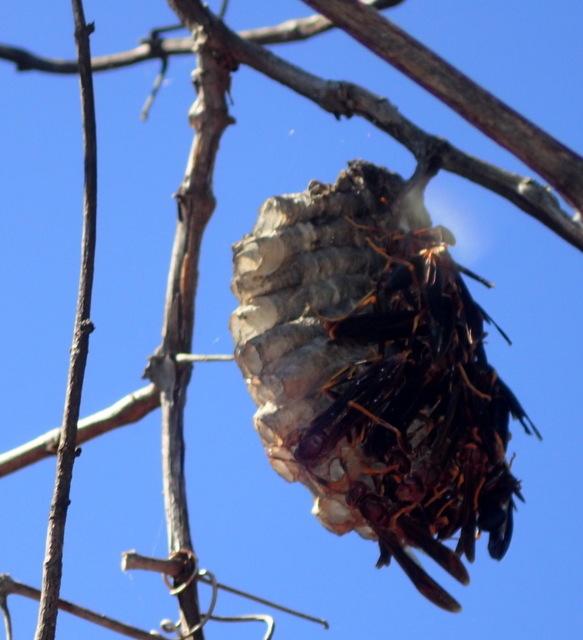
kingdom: Animalia
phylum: Arthropoda
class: Insecta
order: Hymenoptera
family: Eumenidae
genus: Polistes
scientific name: Polistes annularis
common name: Ringed paper wasp
